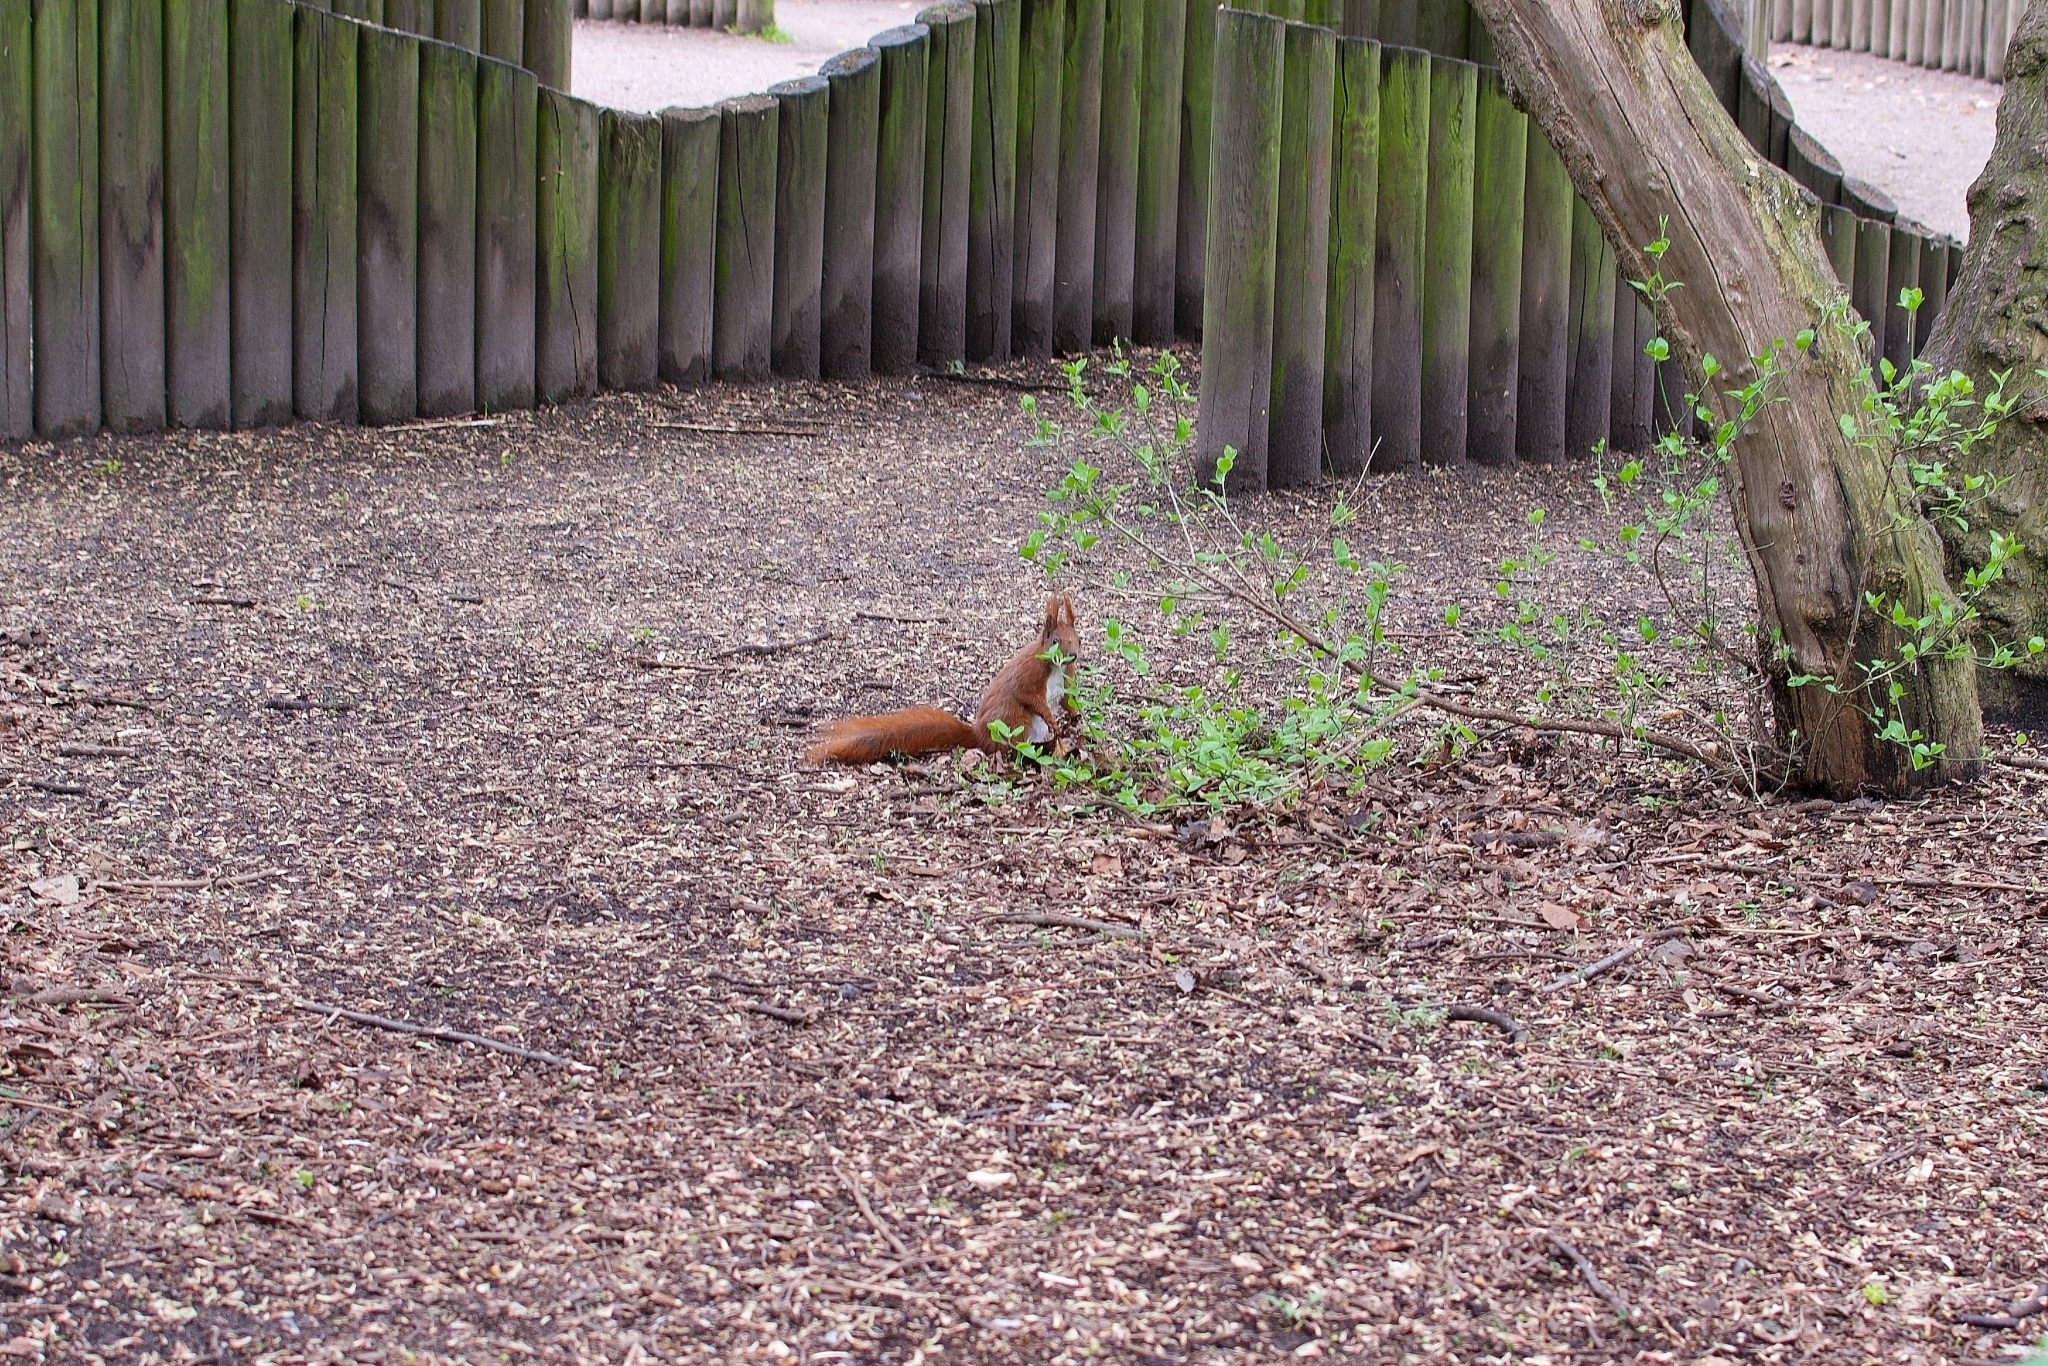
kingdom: Animalia
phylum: Chordata
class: Mammalia
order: Rodentia
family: Sciuridae
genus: Sciurus
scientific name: Sciurus vulgaris
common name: Eurasian red squirrel
